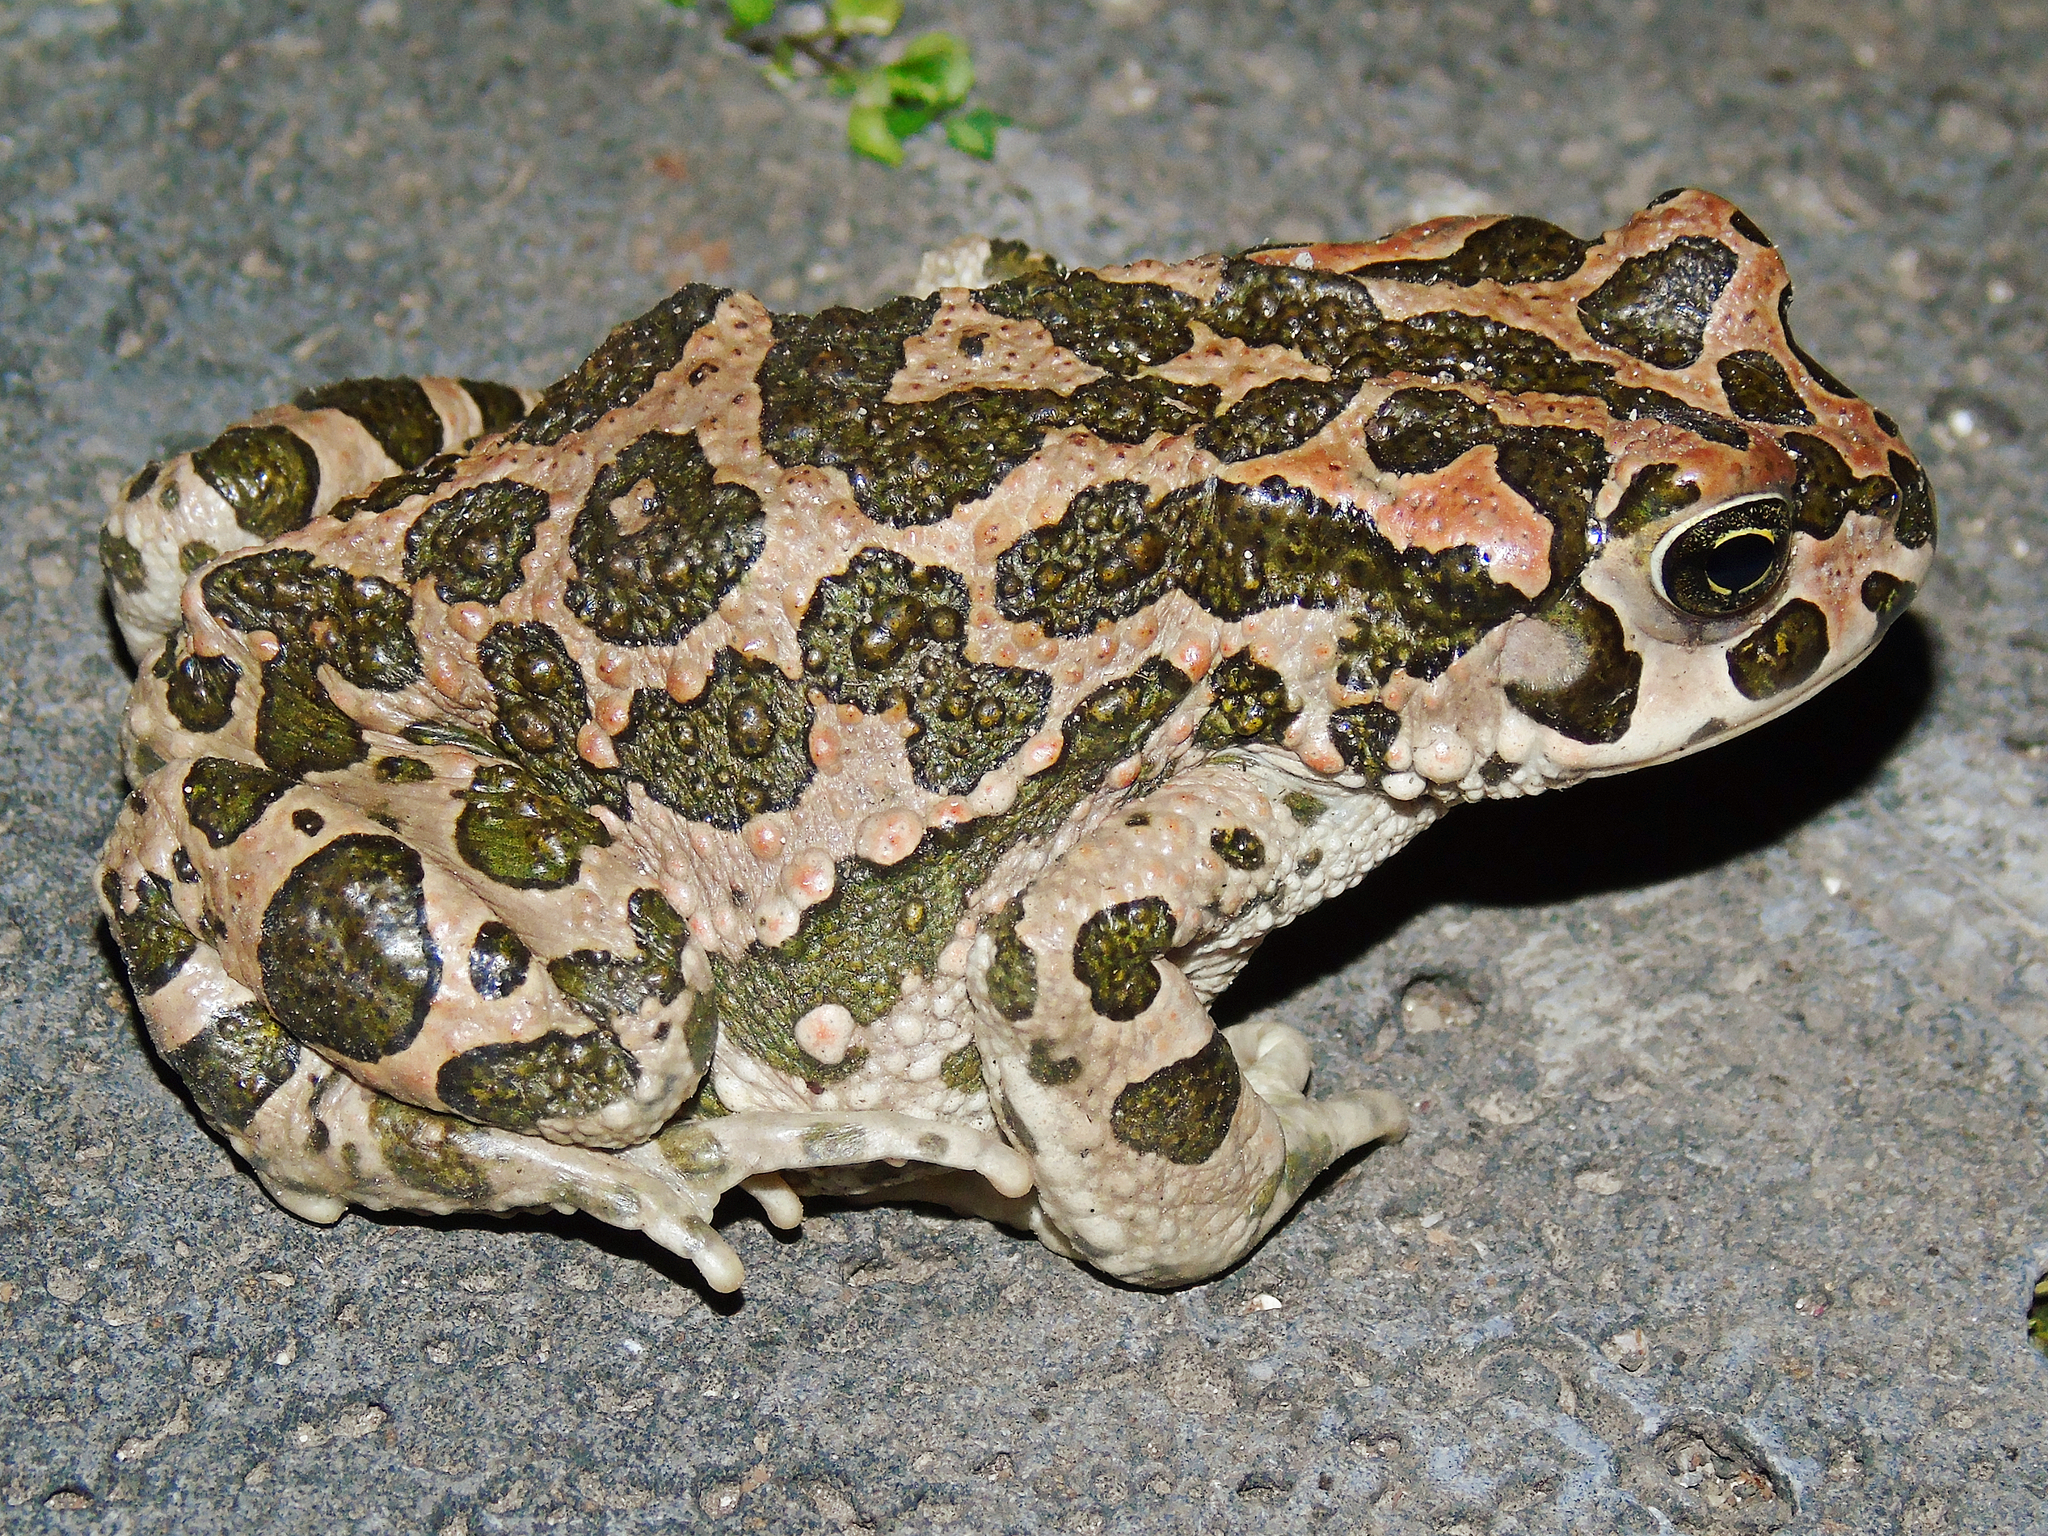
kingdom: Animalia
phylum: Chordata
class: Amphibia
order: Anura
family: Bufonidae
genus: Bufotes
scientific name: Bufotes viridis
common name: European green toad
